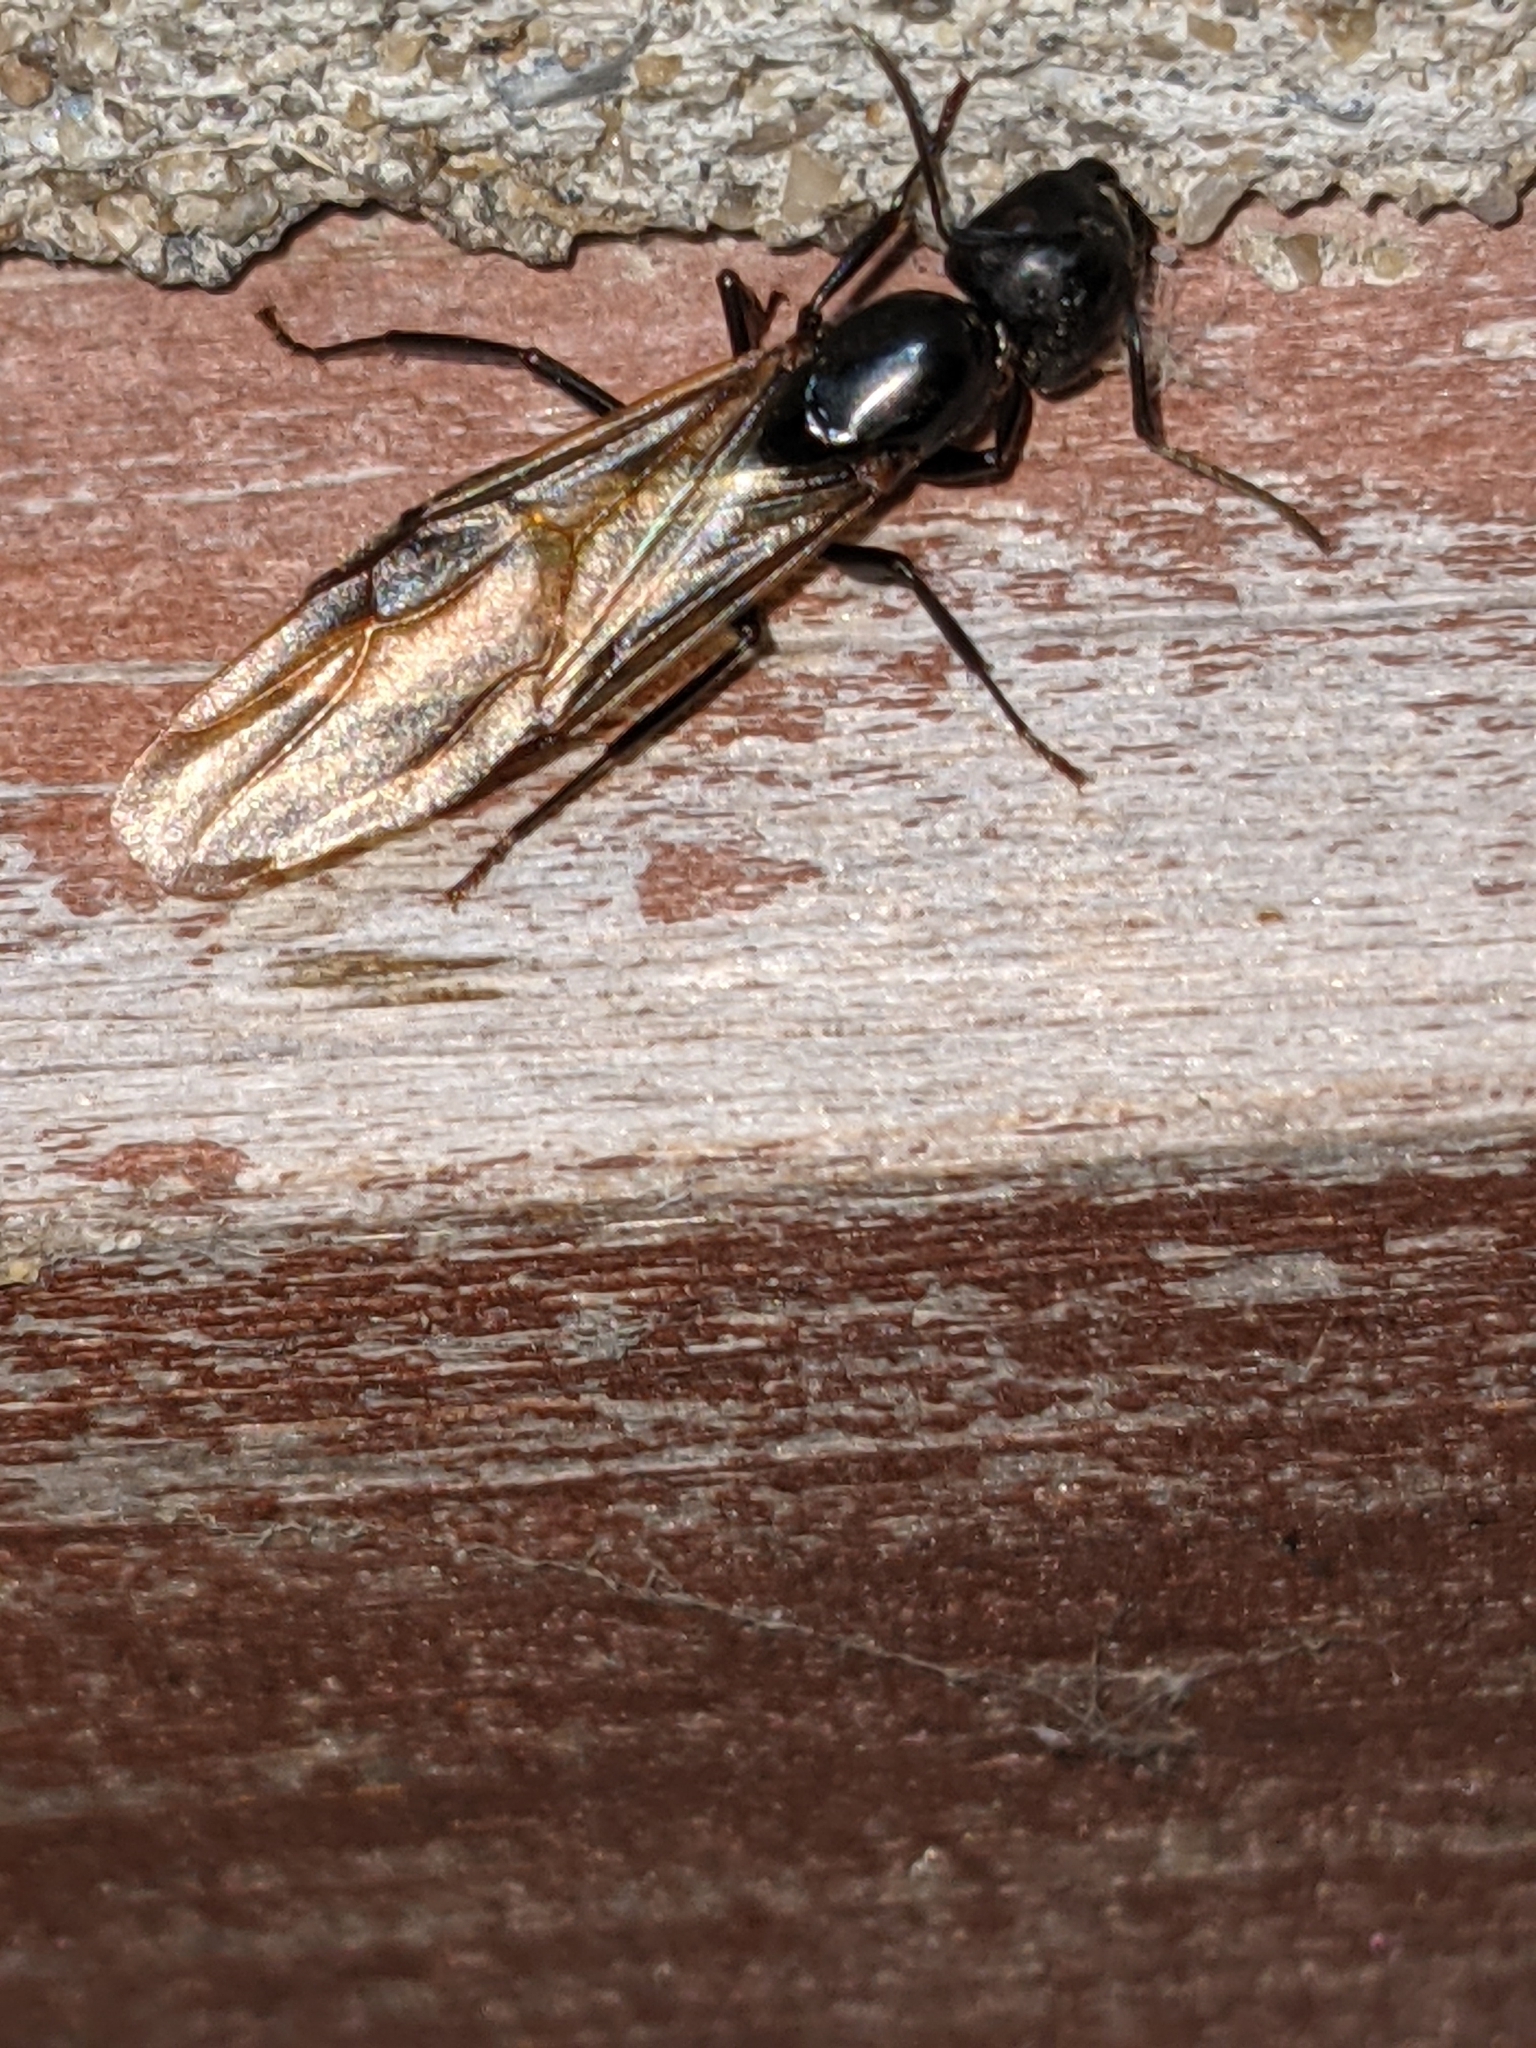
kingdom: Animalia
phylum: Arthropoda
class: Insecta
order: Hymenoptera
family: Formicidae
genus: Camponotus
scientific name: Camponotus pennsylvanicus
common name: Black carpenter ant
